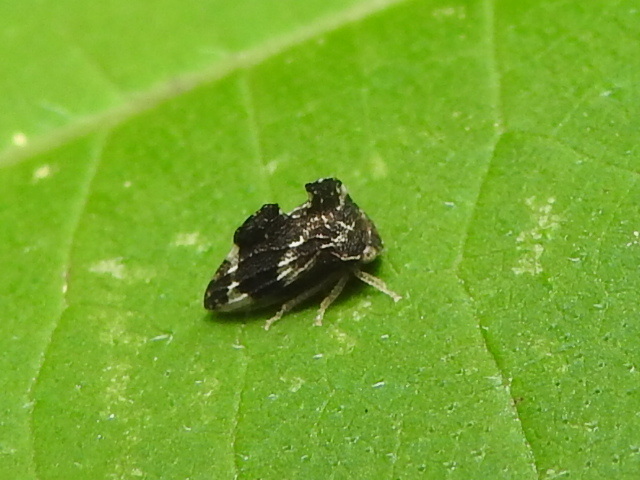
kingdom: Animalia
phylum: Arthropoda
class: Insecta
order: Hemiptera
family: Membracidae
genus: Entylia
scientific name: Entylia carinata
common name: Keeled treehopper
